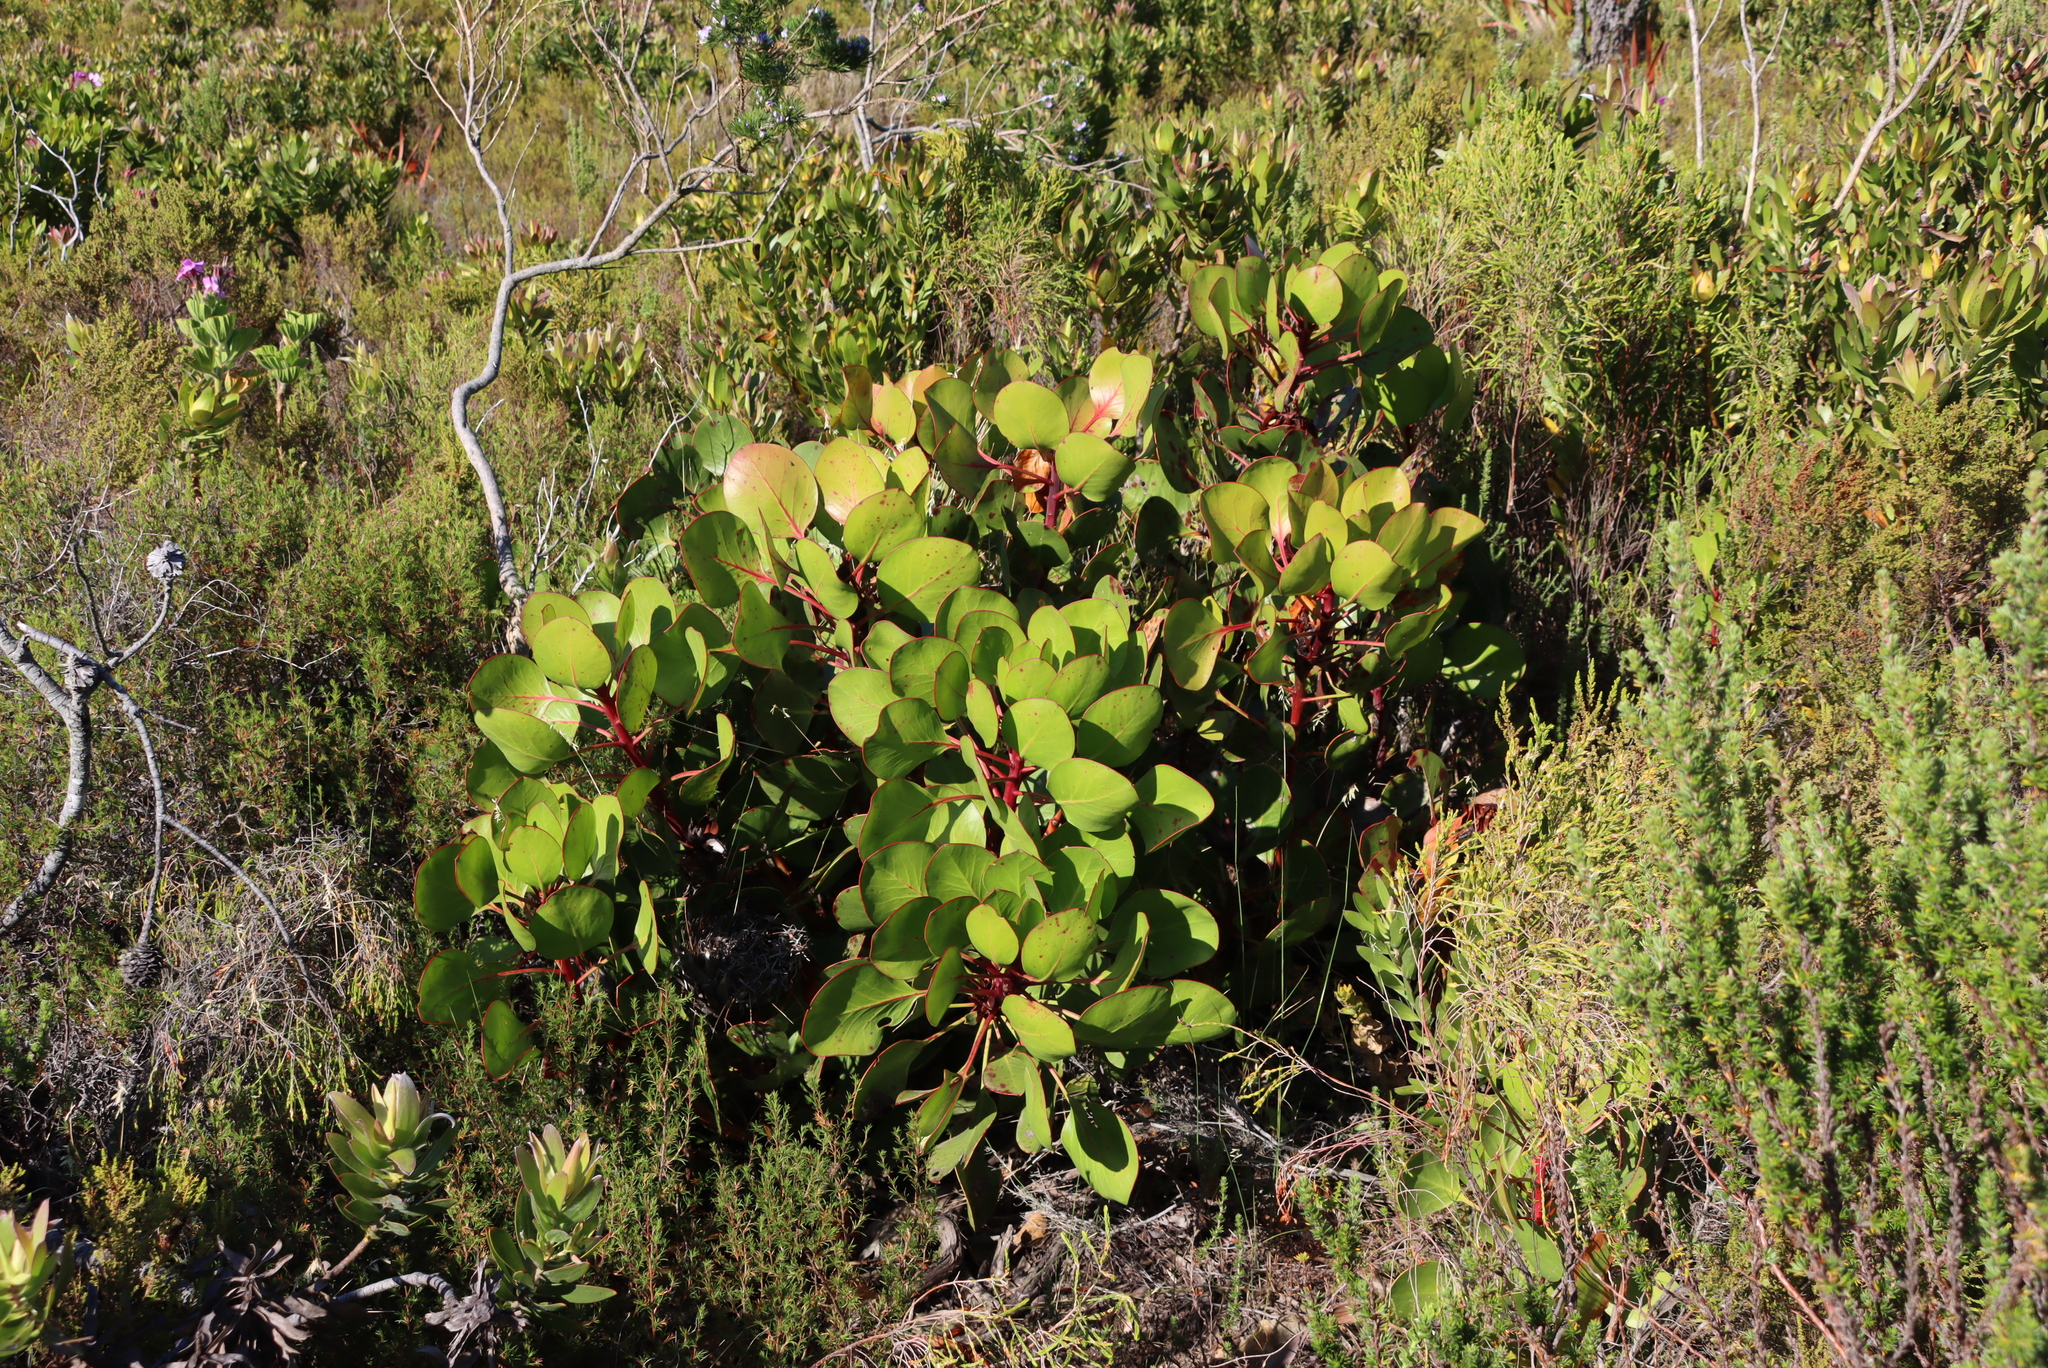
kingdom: Plantae
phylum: Tracheophyta
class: Magnoliopsida
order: Proteales
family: Proteaceae
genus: Protea
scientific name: Protea cynaroides
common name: King protea
